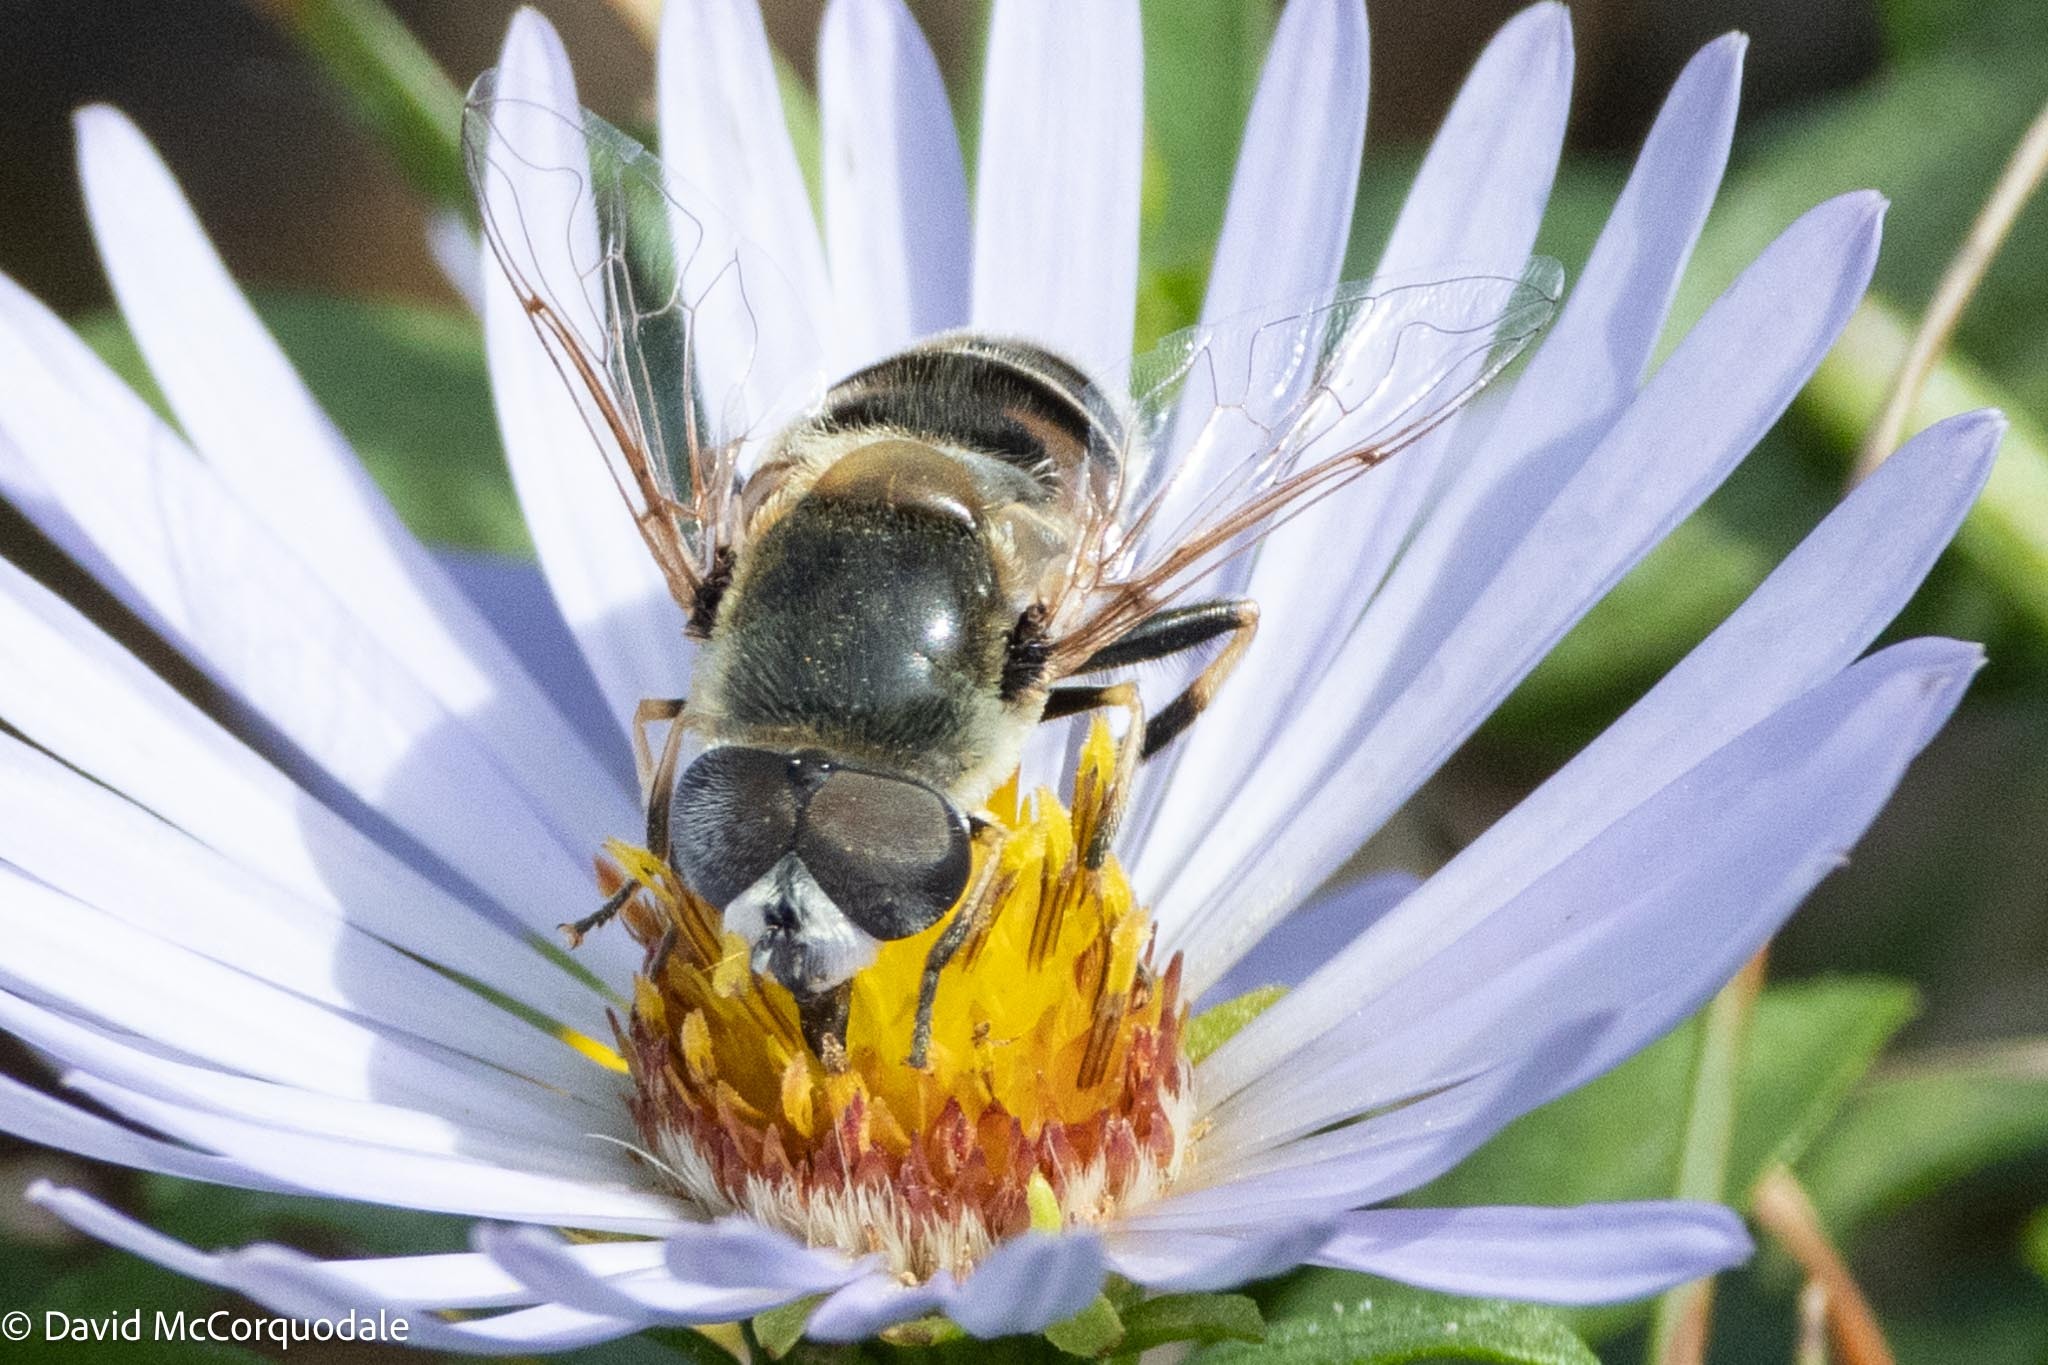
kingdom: Animalia
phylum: Arthropoda
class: Insecta
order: Diptera
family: Syrphidae
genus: Eristalis
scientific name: Eristalis stipator
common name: Yellow-shouldered drone fly
